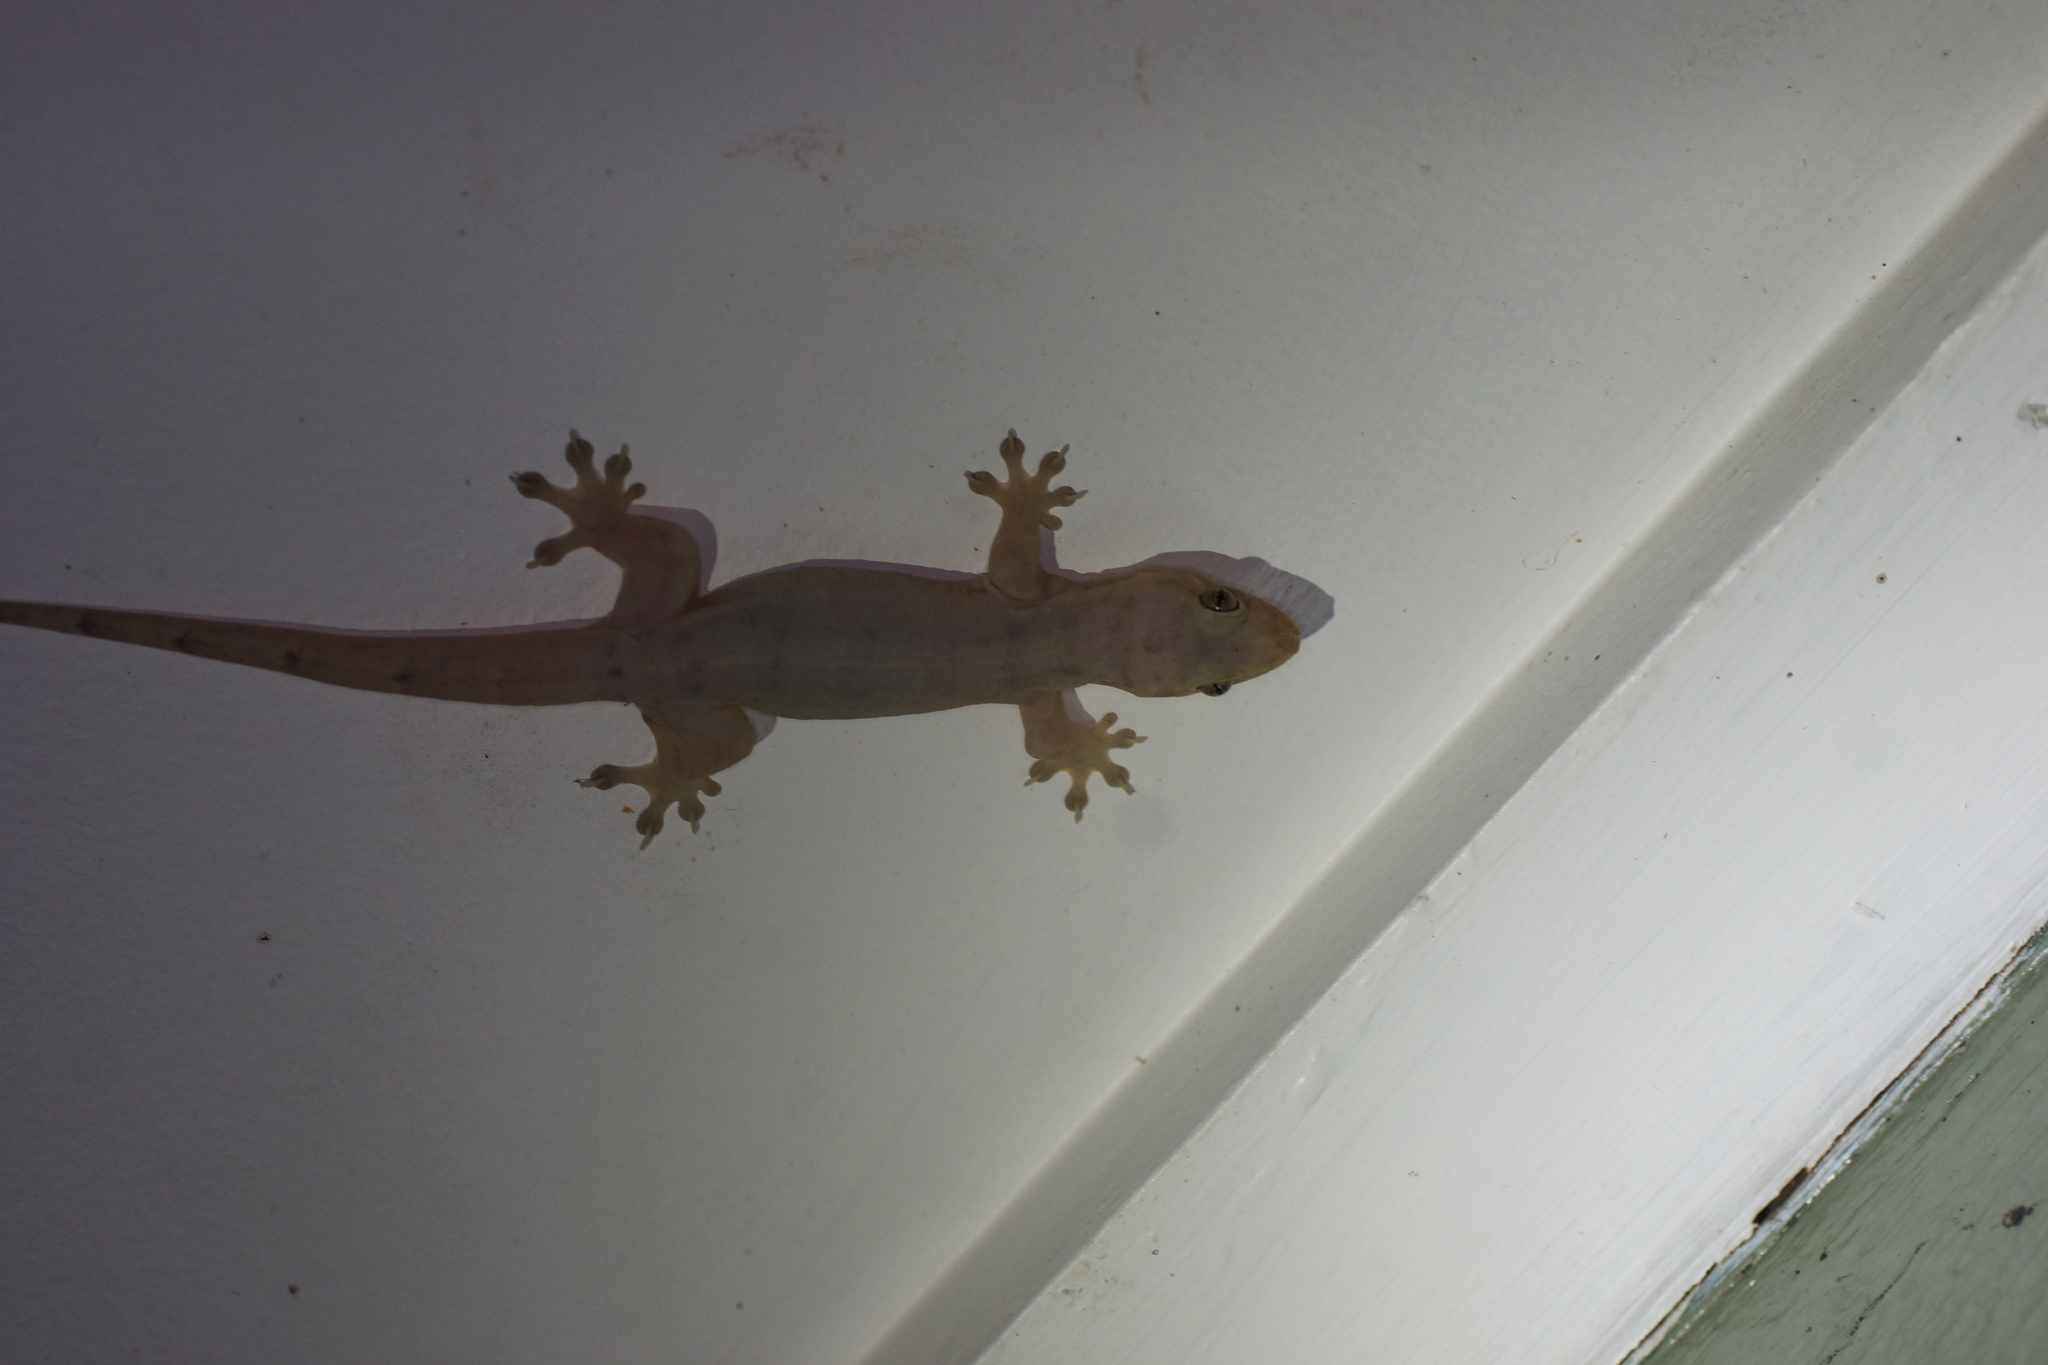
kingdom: Animalia
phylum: Chordata
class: Squamata
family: Gekkonidae
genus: Gehyra
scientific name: Gehyra dubia
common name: Dubious dtella
